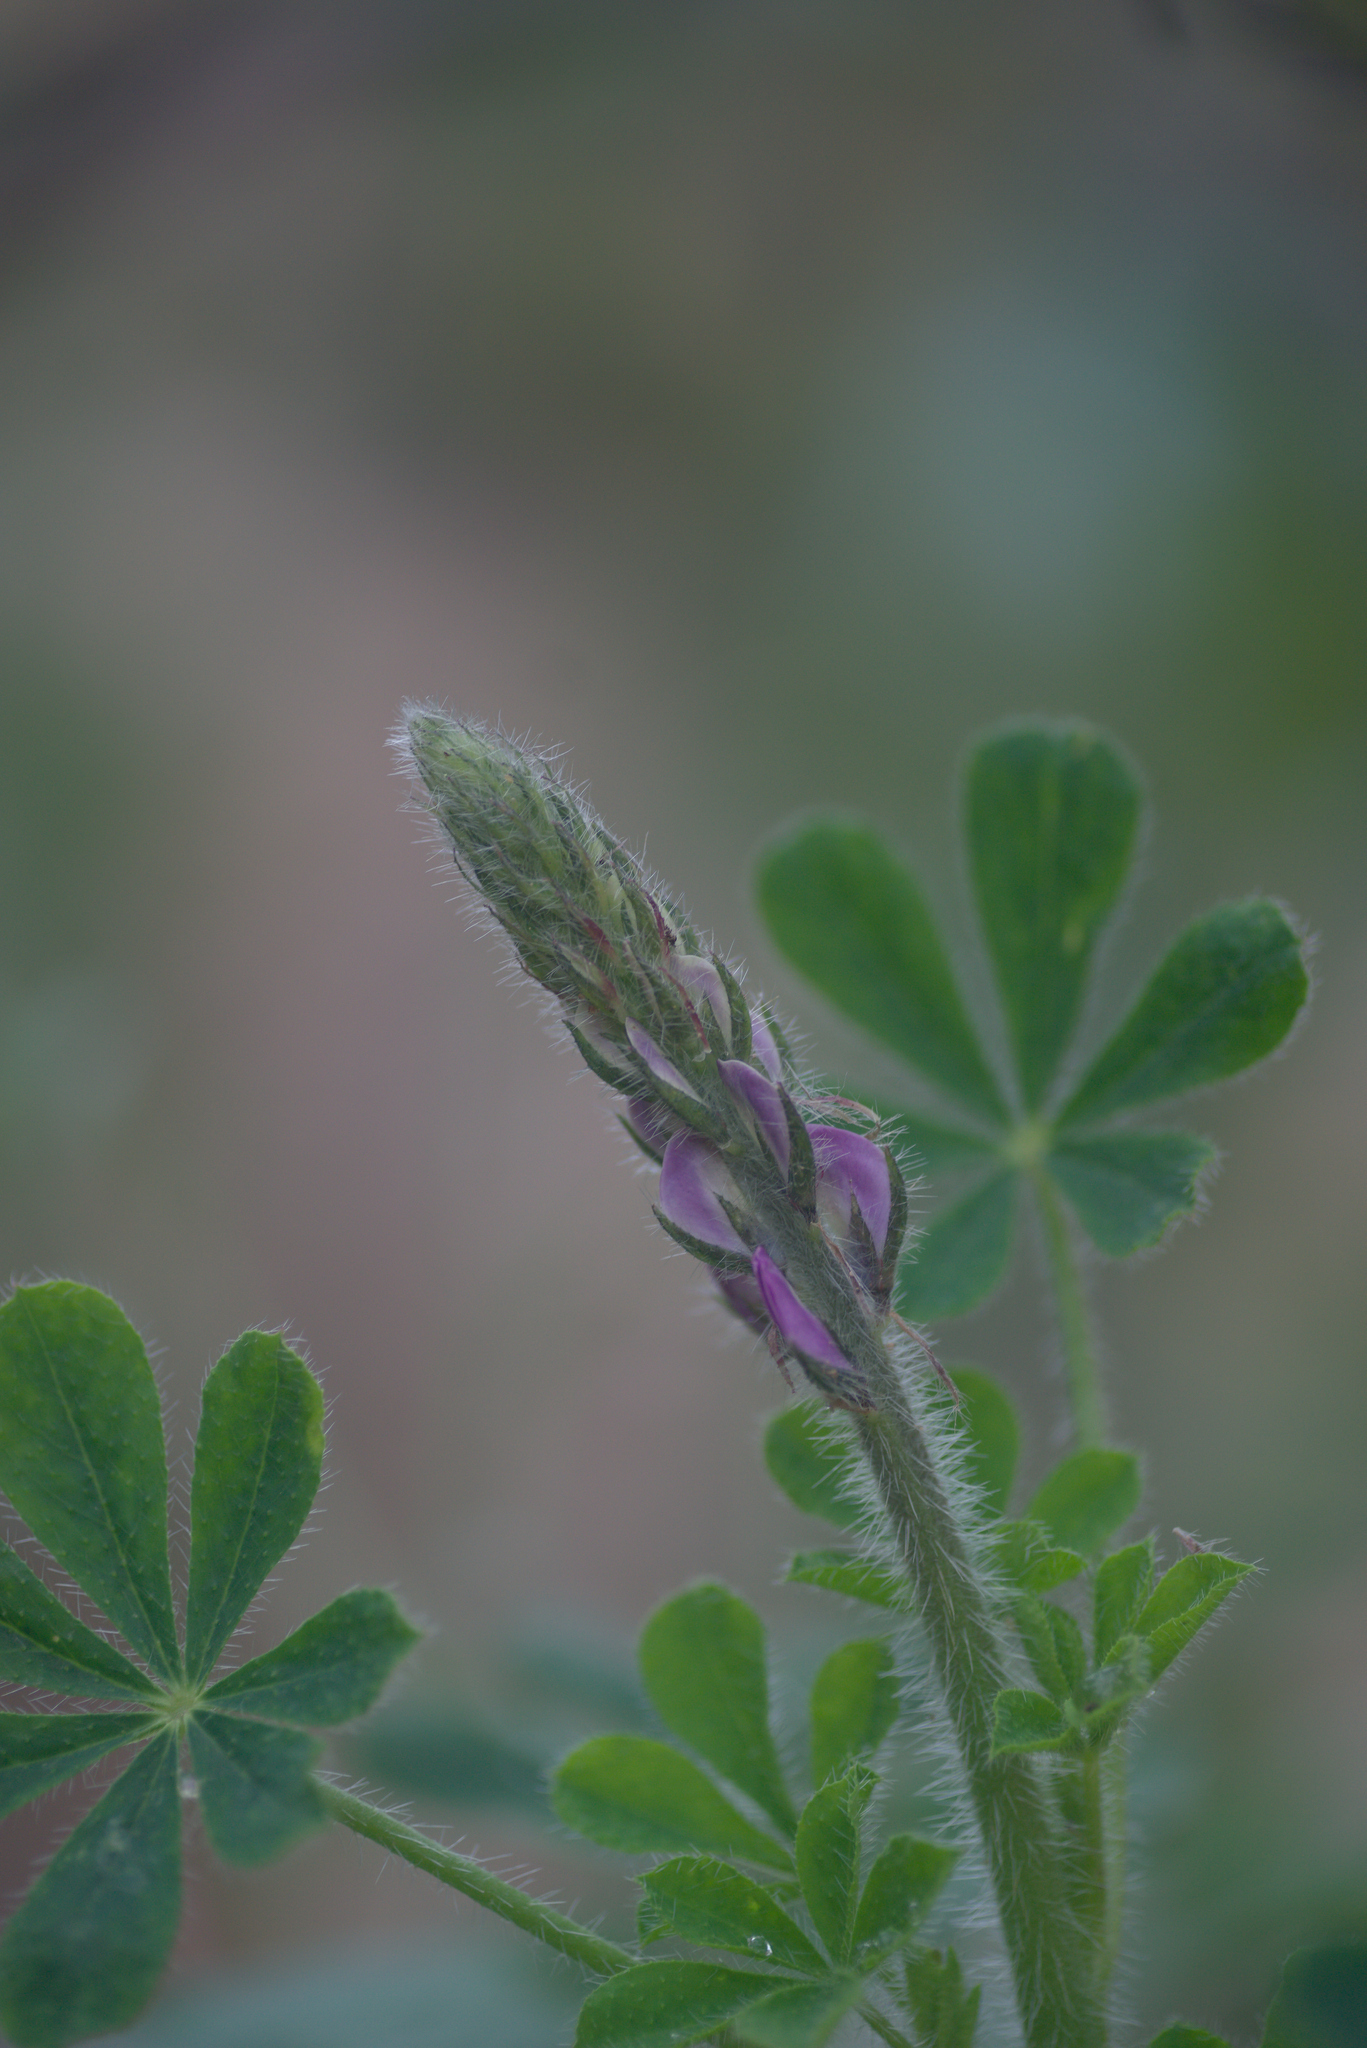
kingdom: Plantae
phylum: Tracheophyta
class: Magnoliopsida
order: Fabales
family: Fabaceae
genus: Lupinus
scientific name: Lupinus hirsutissimus
